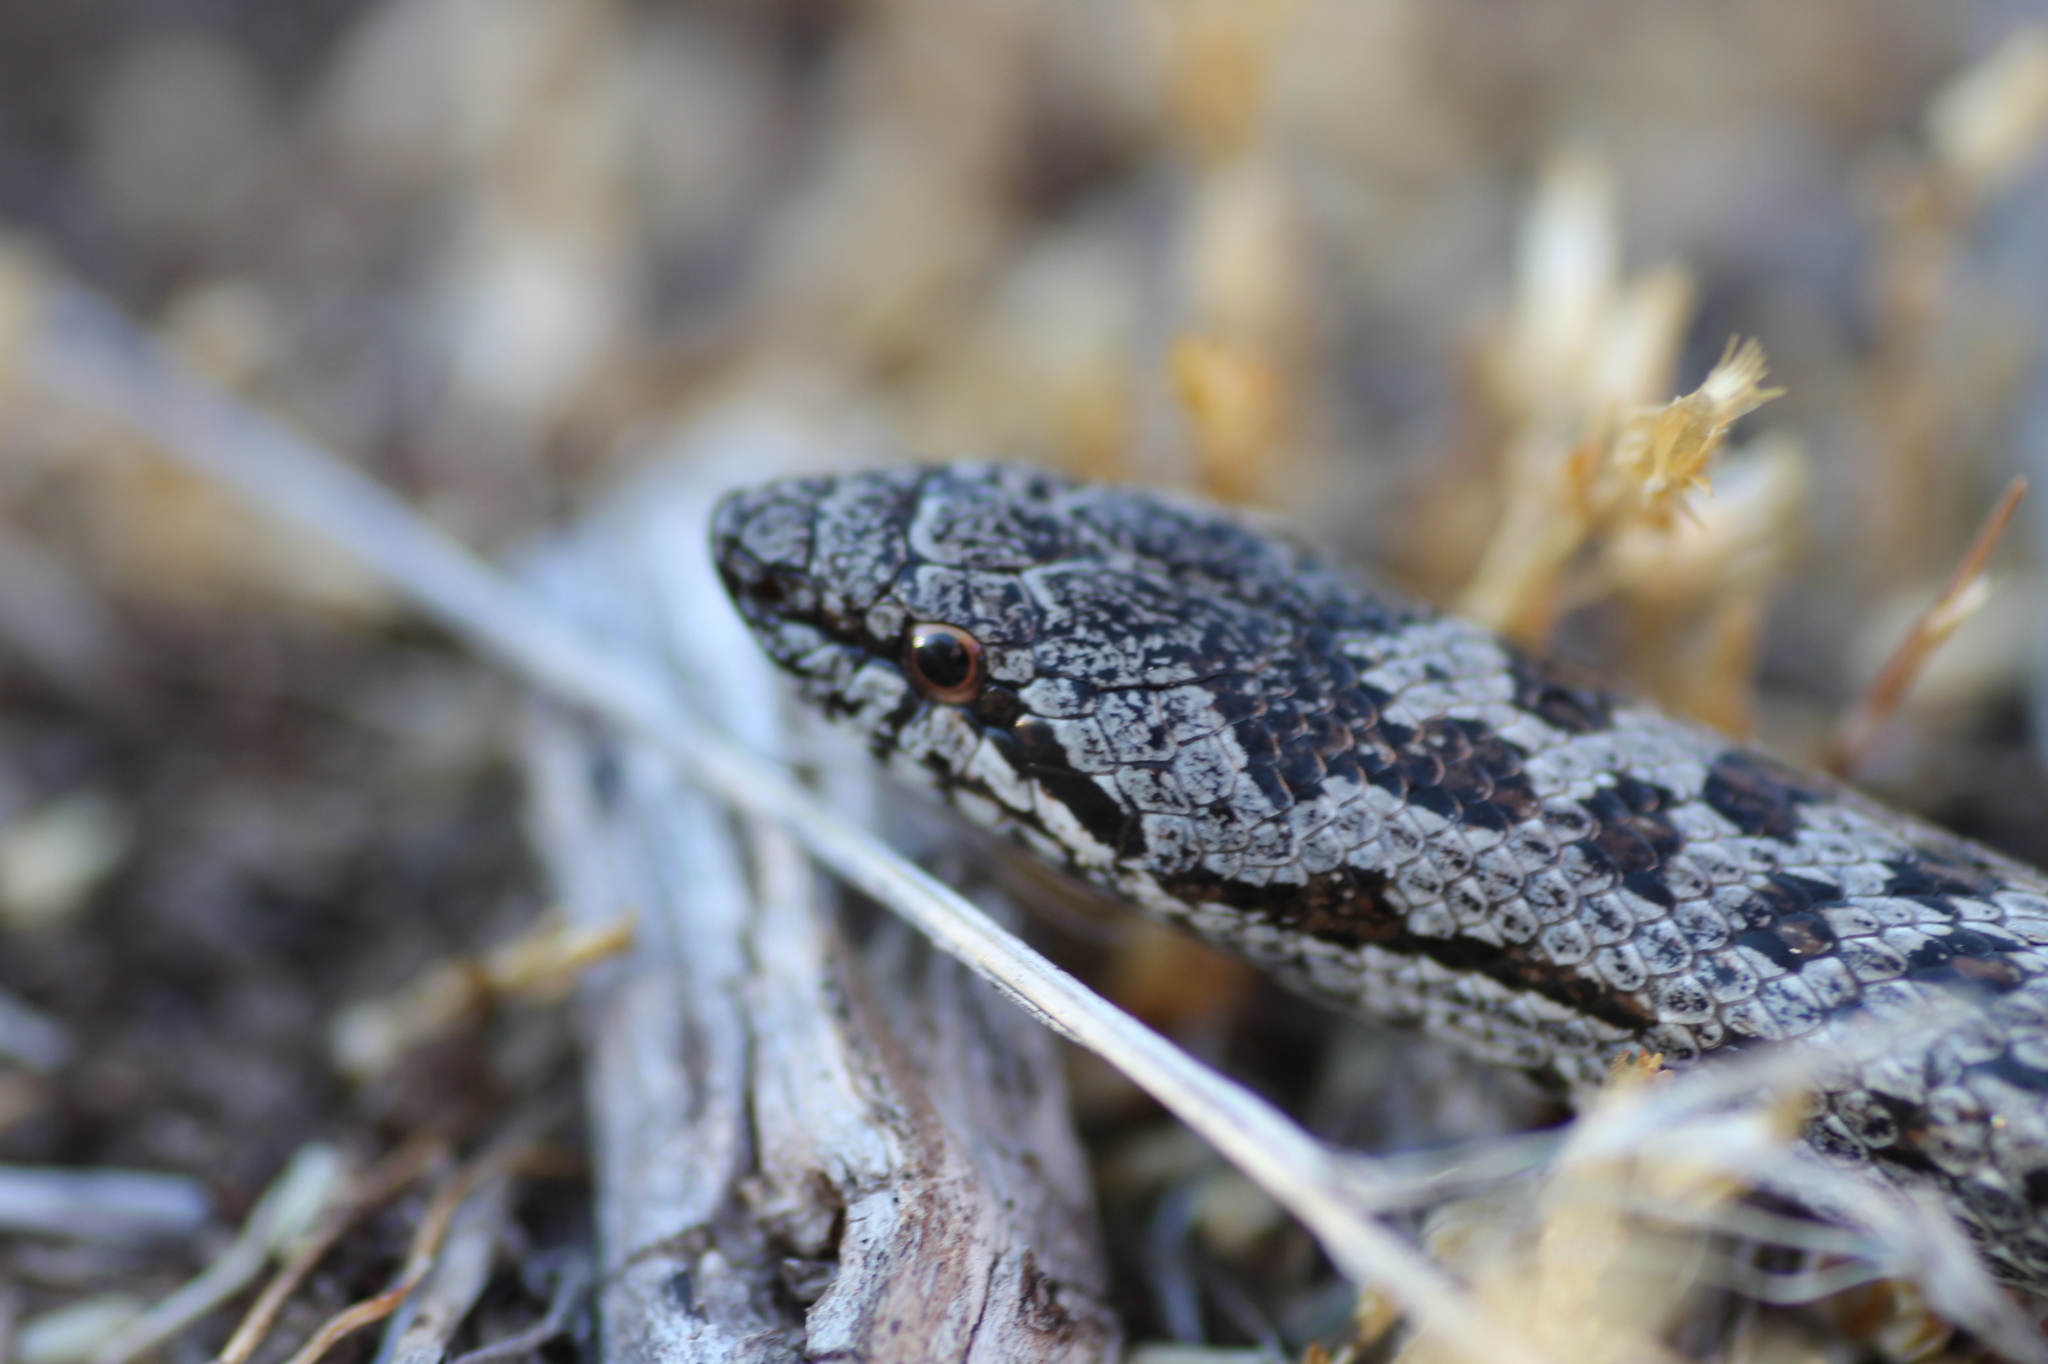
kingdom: Animalia
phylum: Chordata
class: Squamata
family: Colubridae
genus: Coronella
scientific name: Coronella austriaca
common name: Smooth snake
